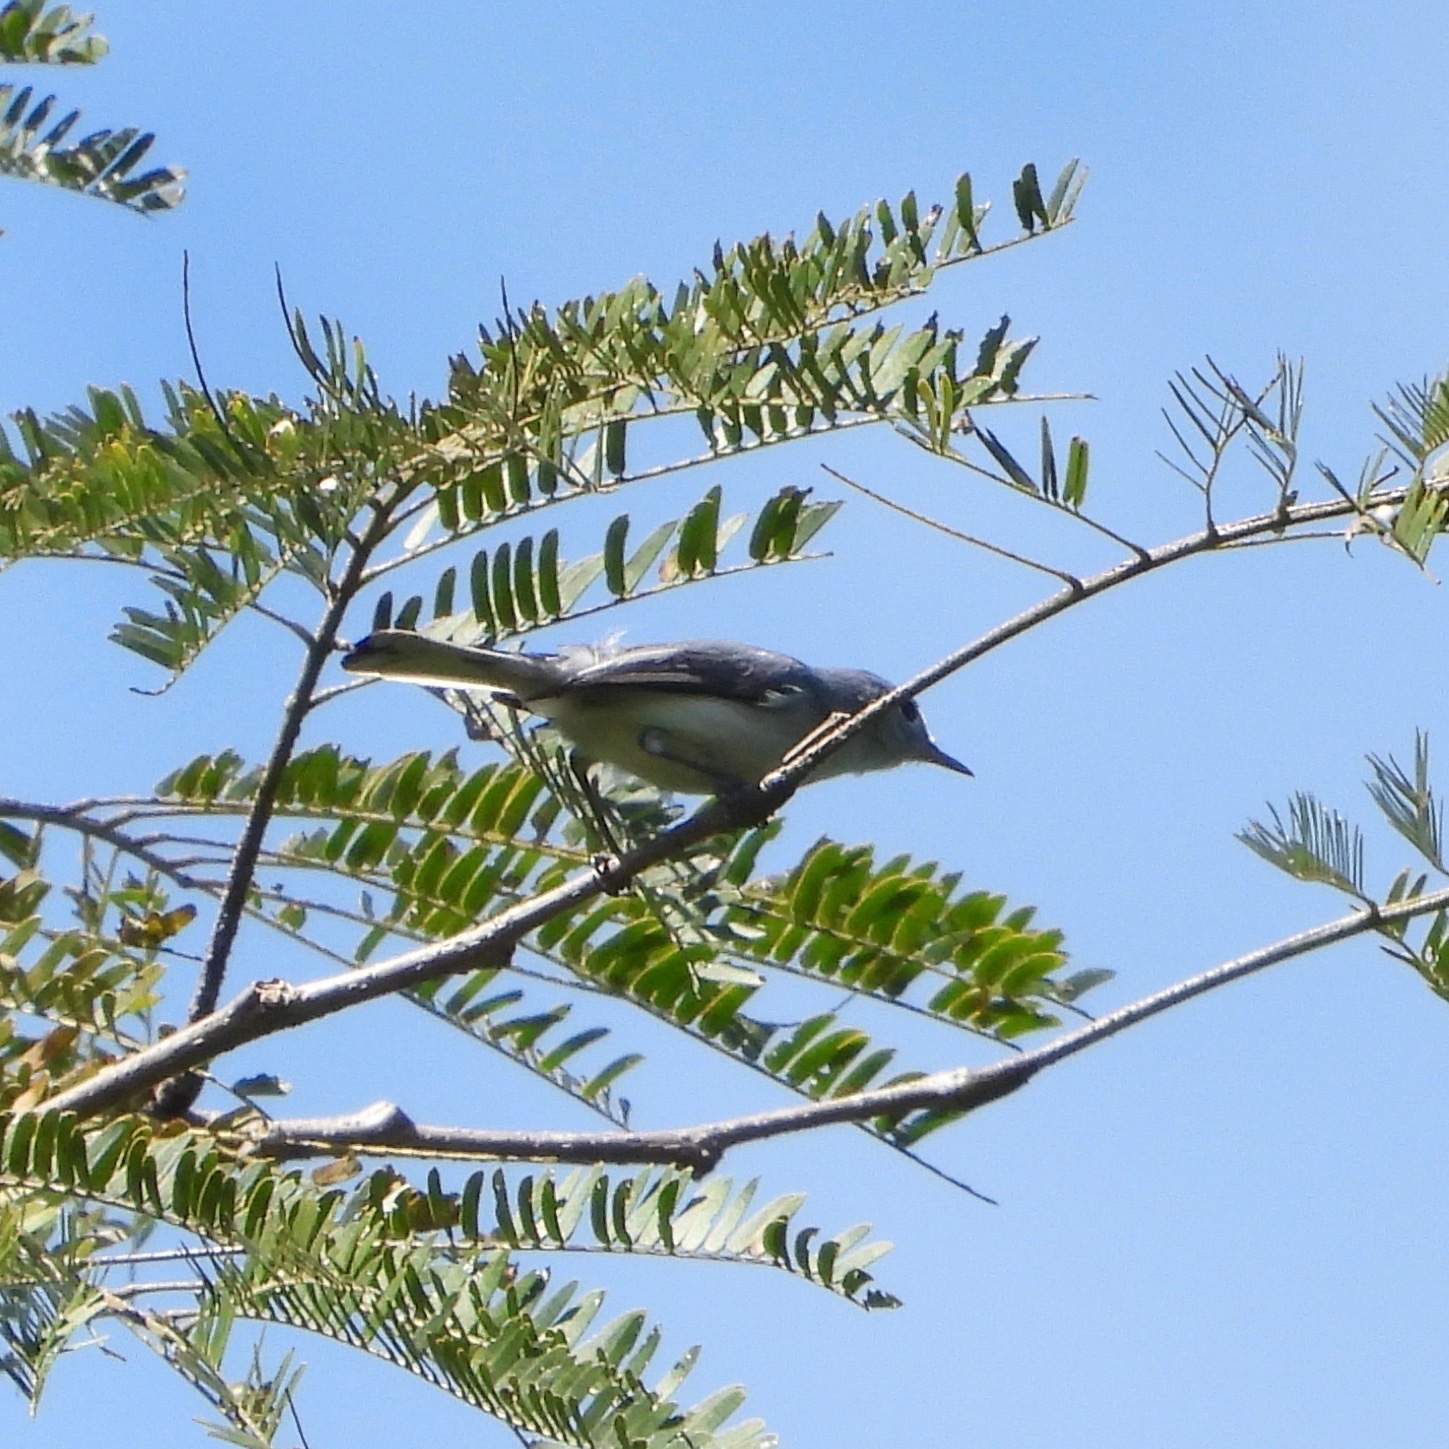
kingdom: Animalia
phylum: Chordata
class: Aves
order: Passeriformes
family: Polioptilidae
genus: Polioptila
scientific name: Polioptila caerulea
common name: Blue-gray gnatcatcher
